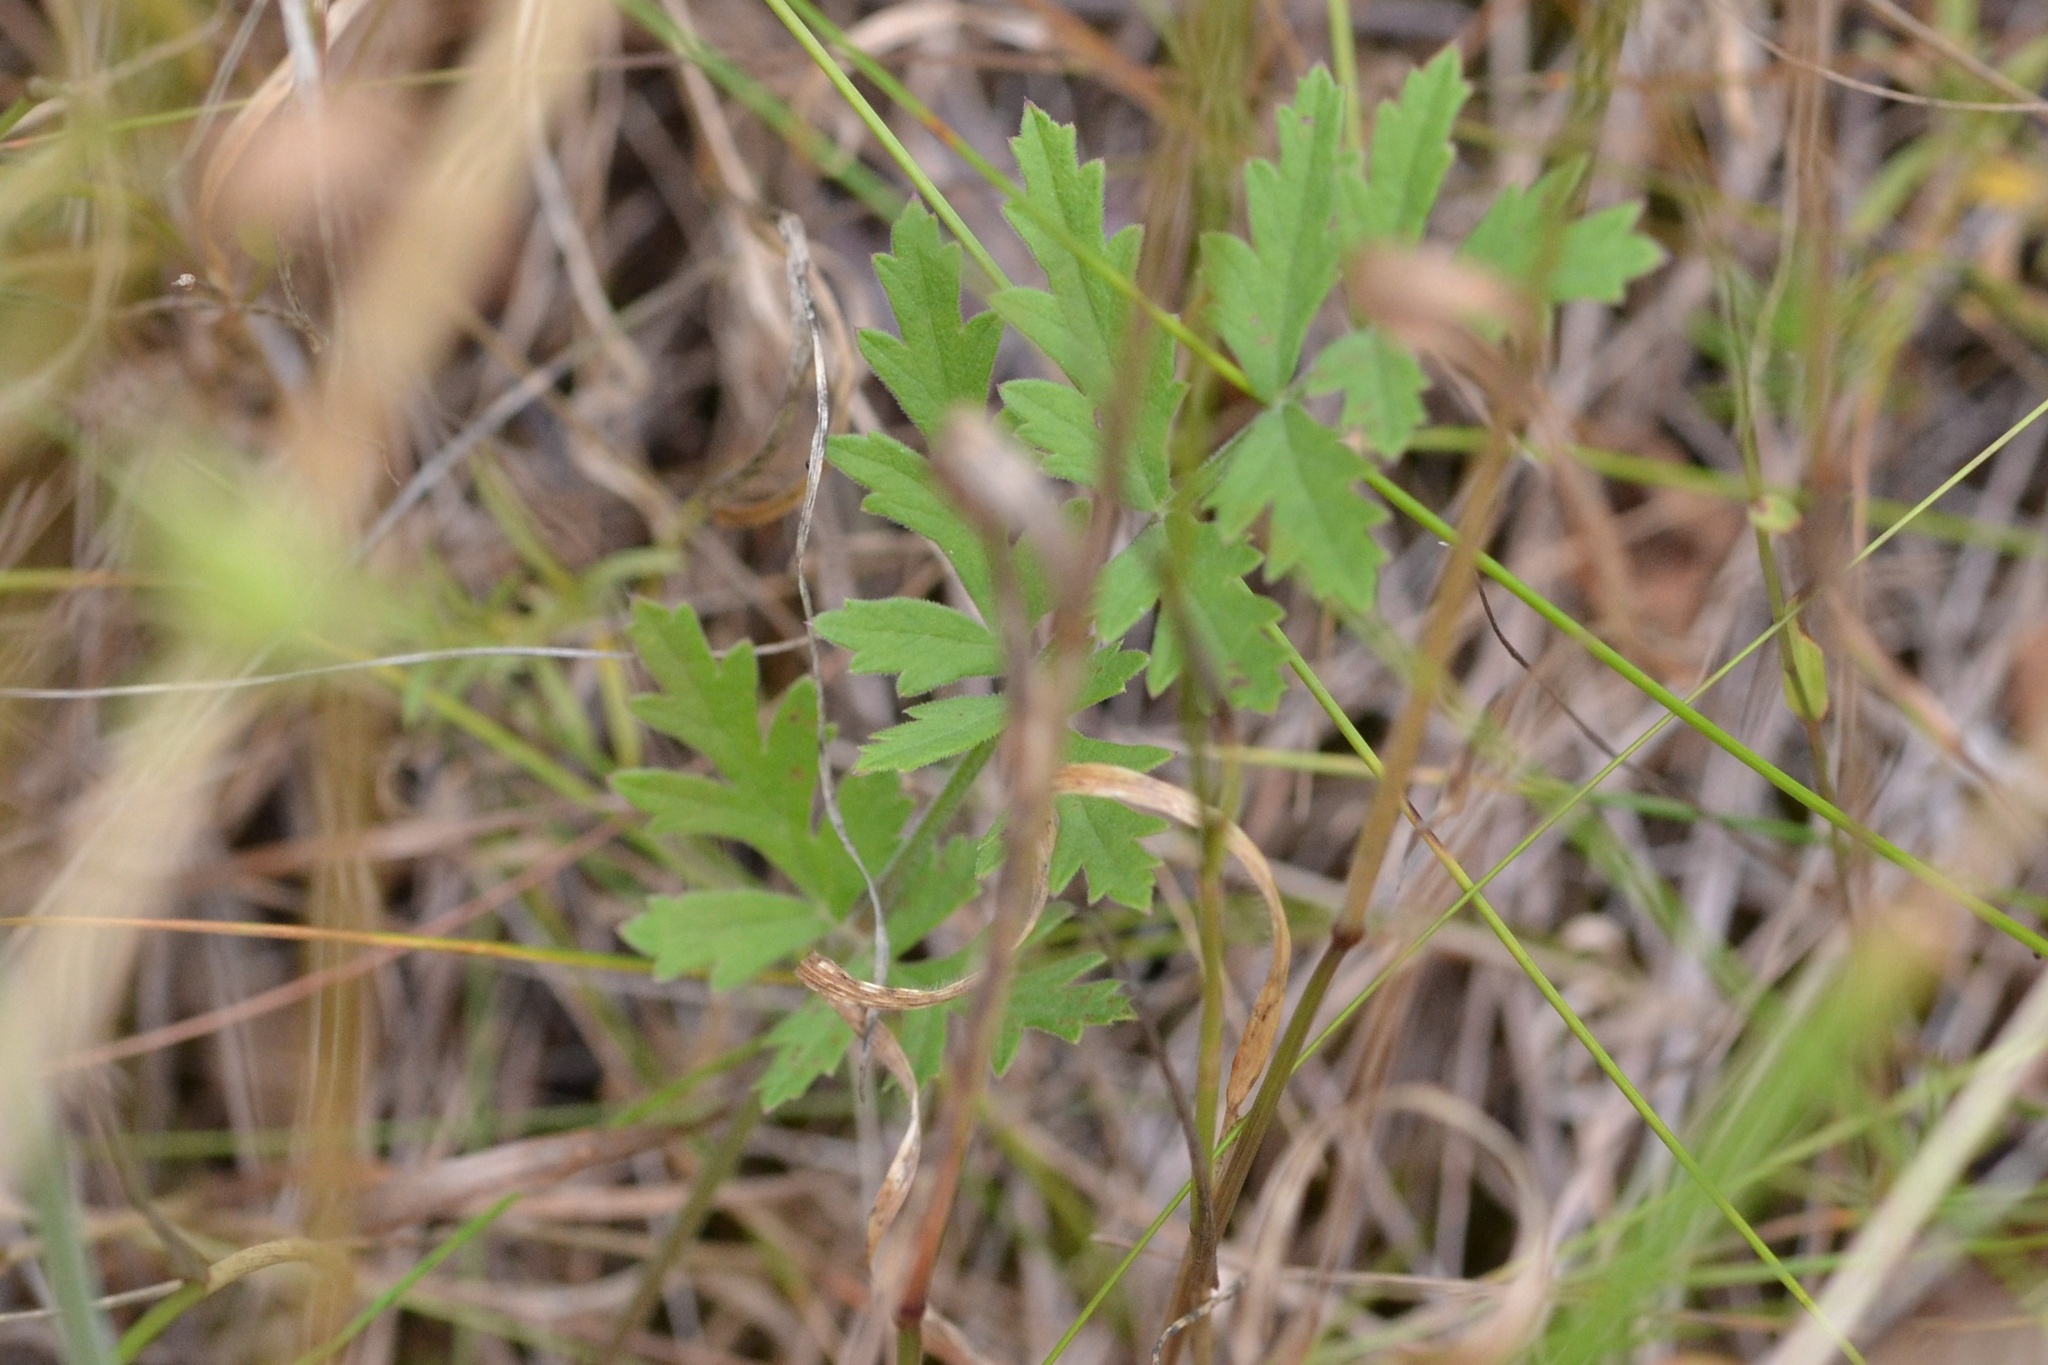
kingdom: Plantae
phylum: Tracheophyta
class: Magnoliopsida
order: Apiales
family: Apiaceae
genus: Pimpinella
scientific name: Pimpinella saxifraga
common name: Burnet-saxifrage
